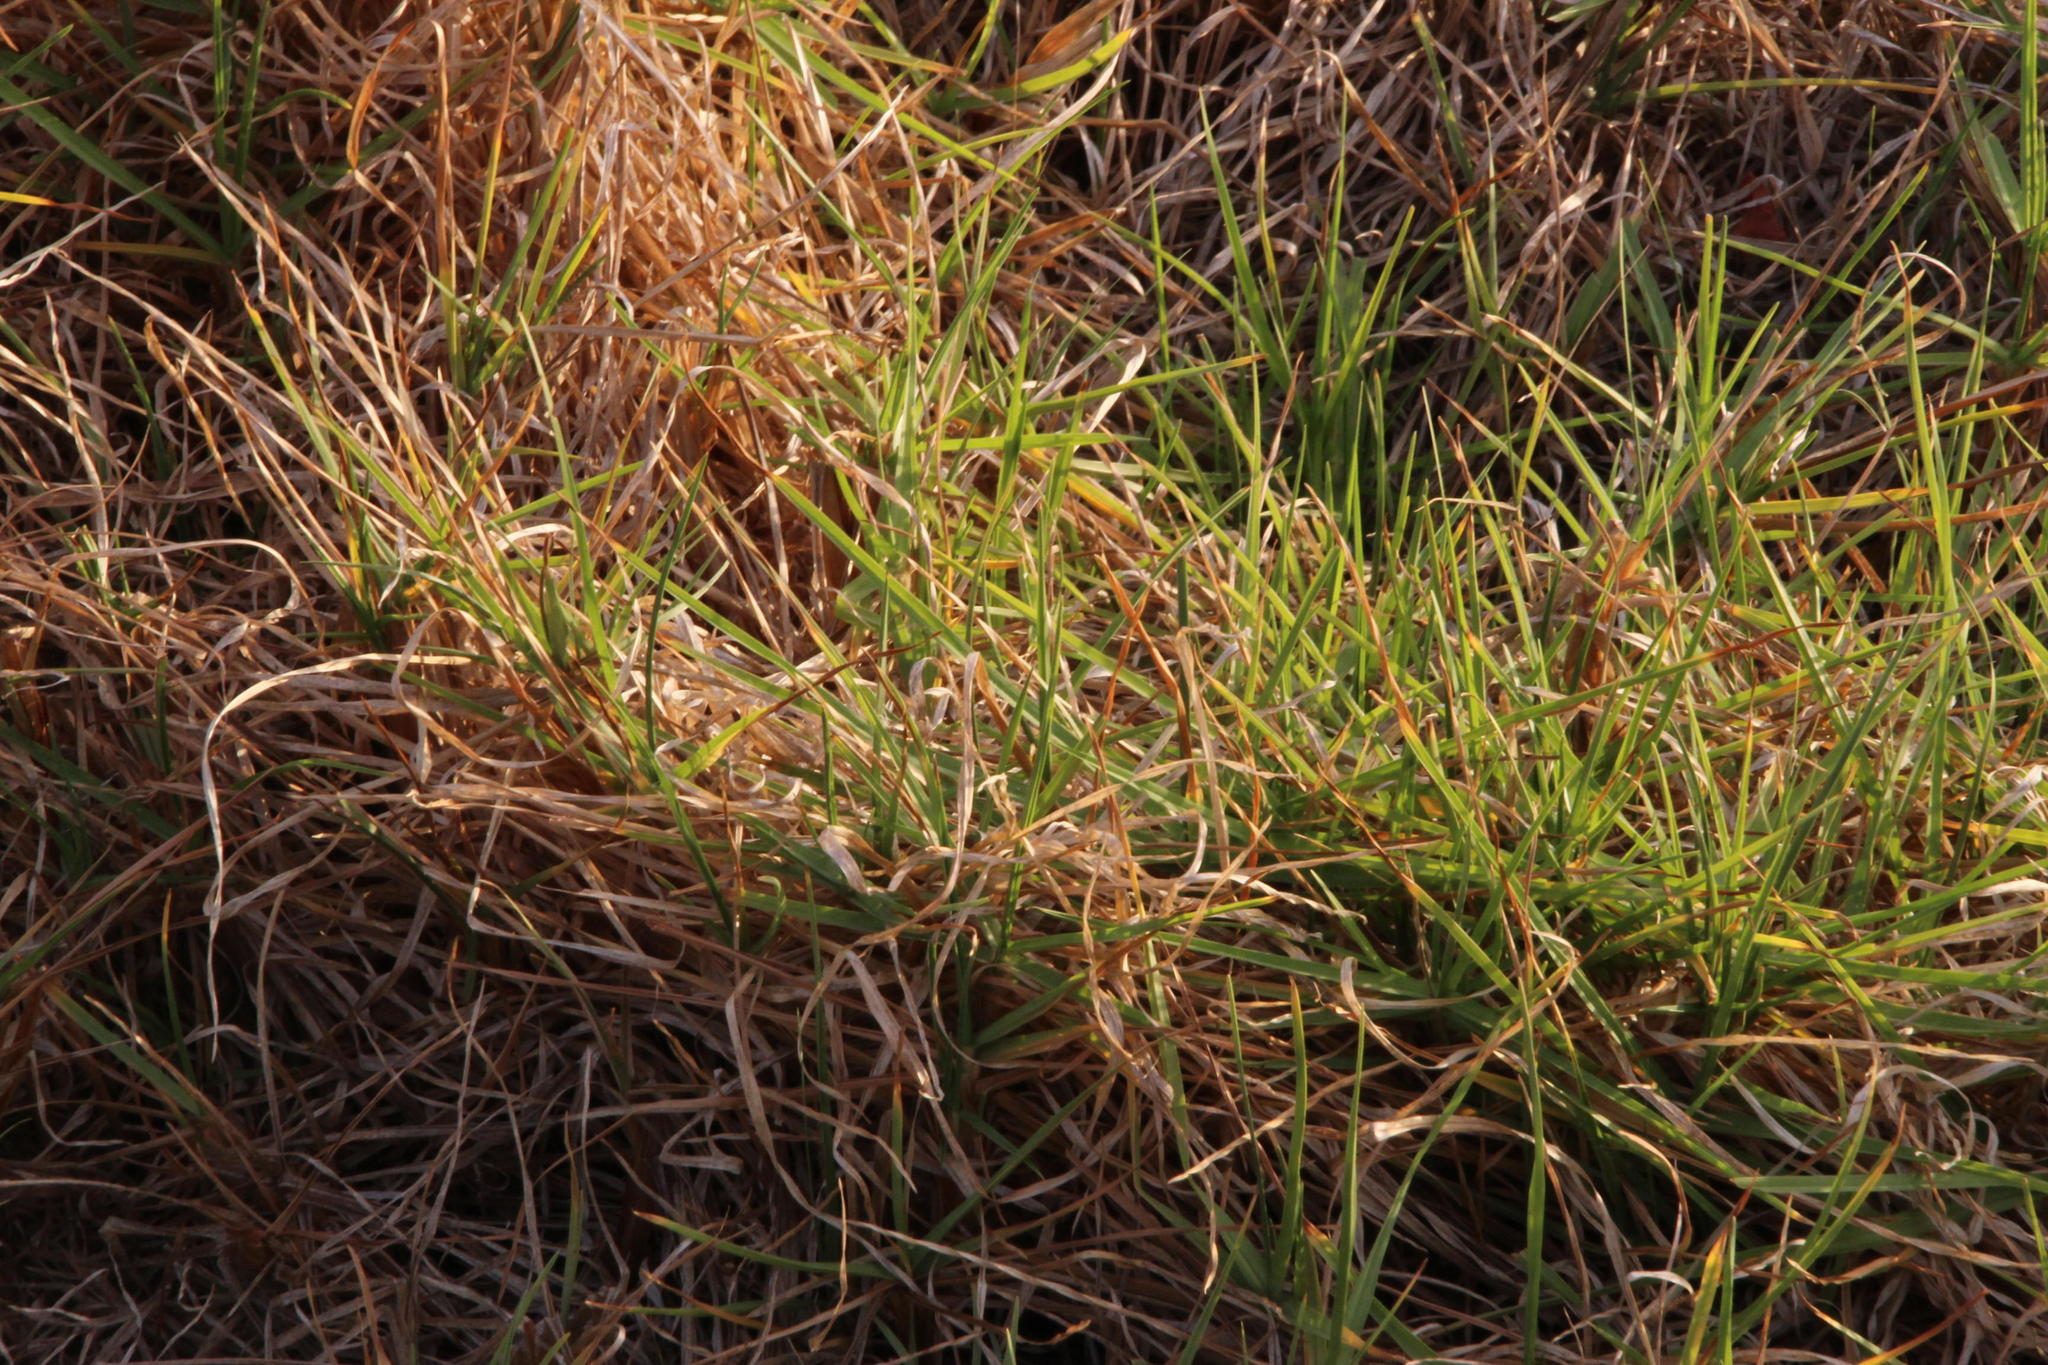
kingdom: Plantae
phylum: Tracheophyta
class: Liliopsida
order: Poales
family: Poaceae
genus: Cenchrus
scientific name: Cenchrus clandestinus
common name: Kikuyugrass
